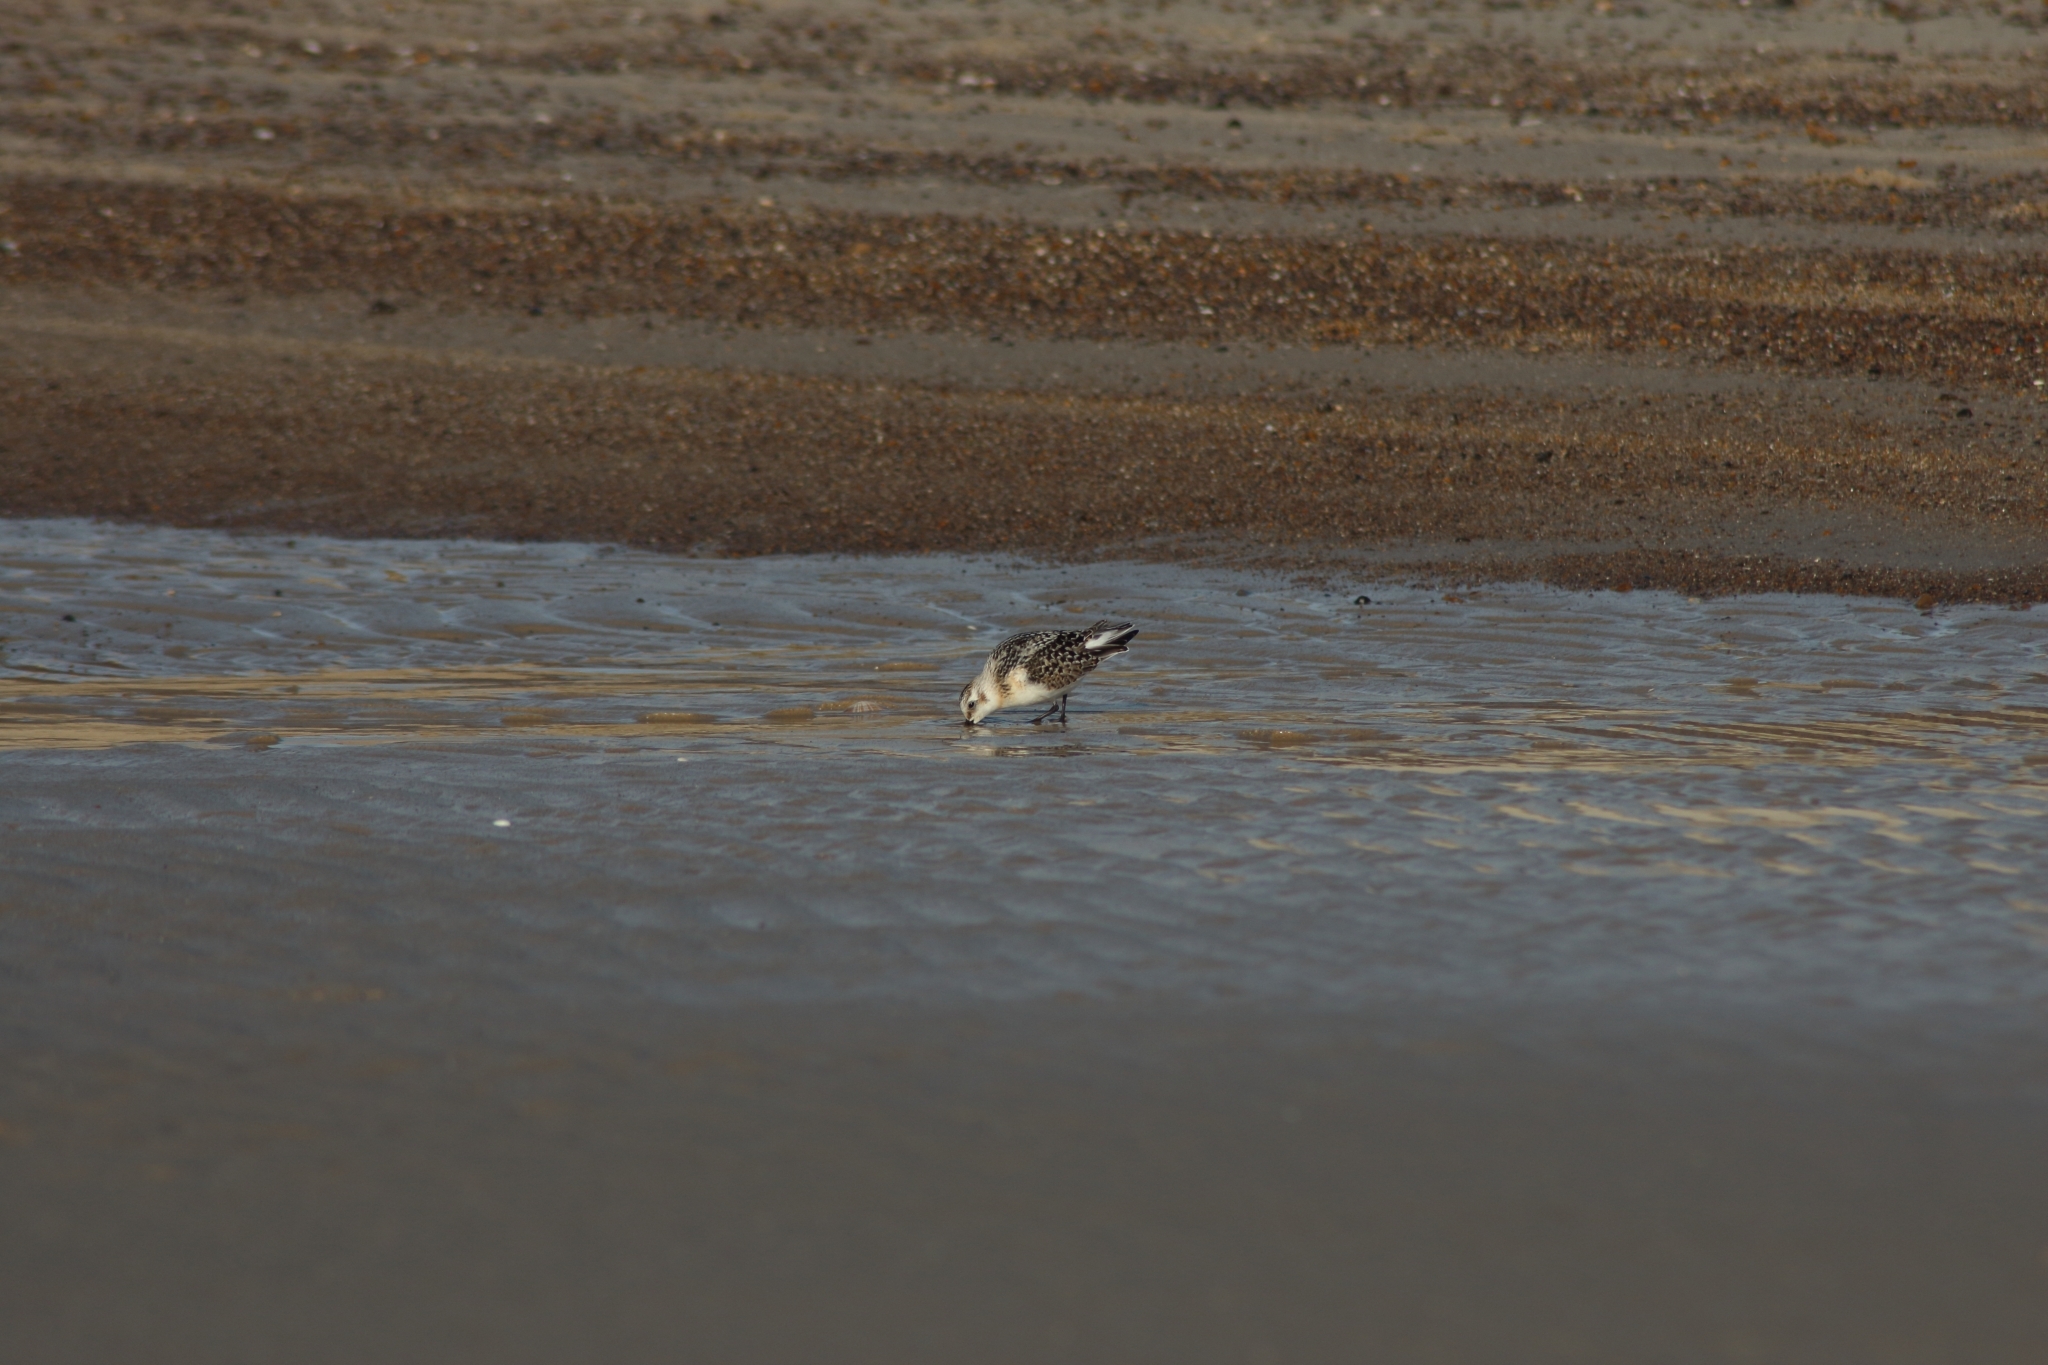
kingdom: Animalia
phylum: Chordata
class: Aves
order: Charadriiformes
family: Scolopacidae
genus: Calidris
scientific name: Calidris alba
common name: Sanderling
